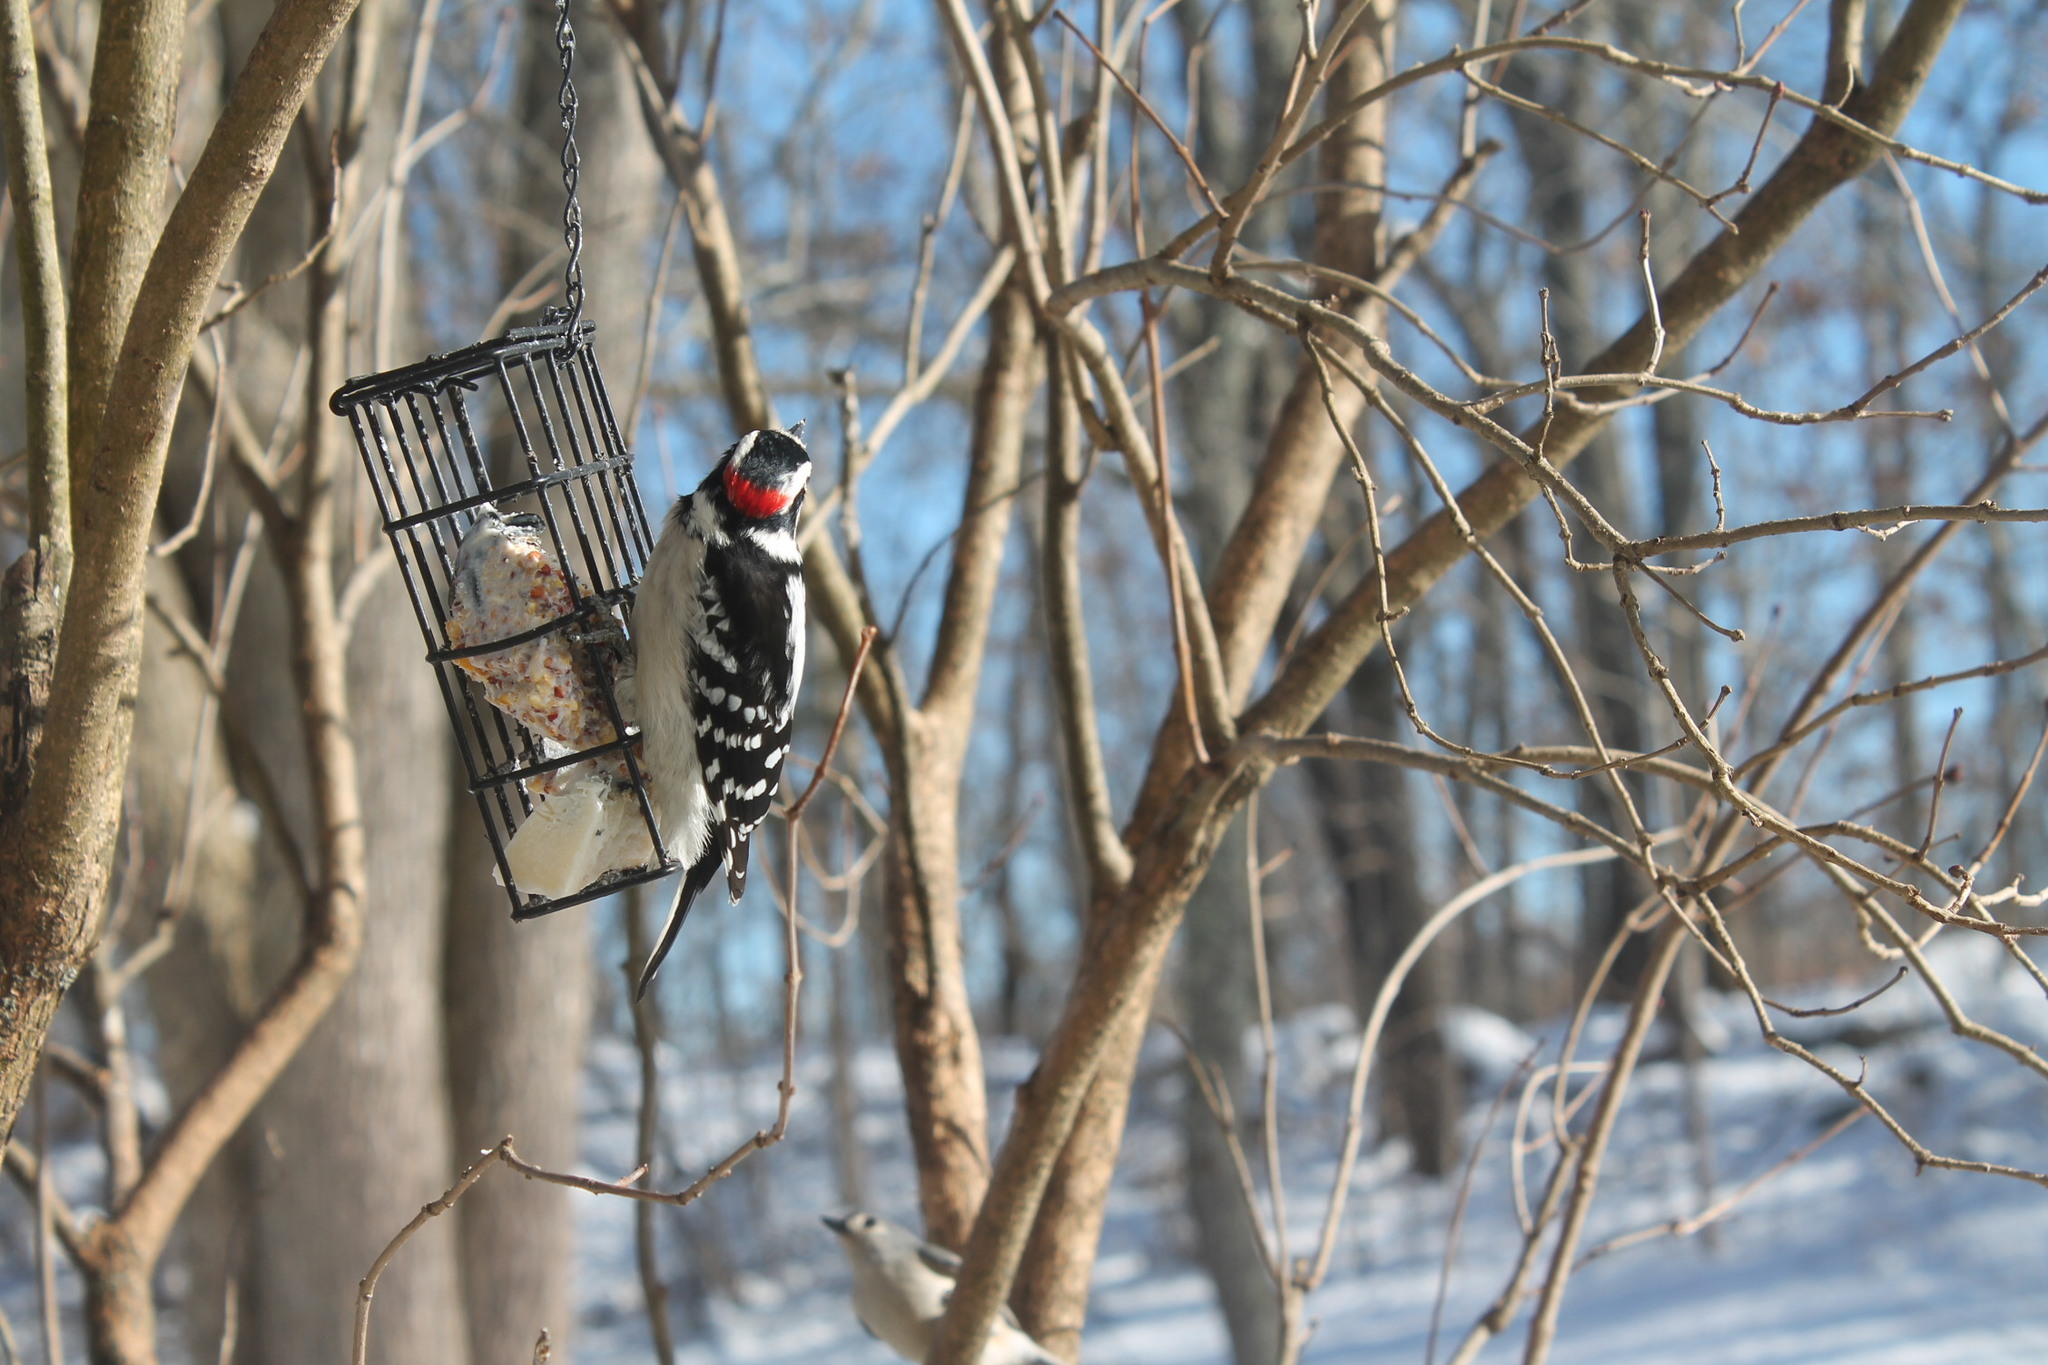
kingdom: Animalia
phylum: Chordata
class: Aves
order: Piciformes
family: Picidae
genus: Dryobates
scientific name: Dryobates pubescens
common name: Downy woodpecker
